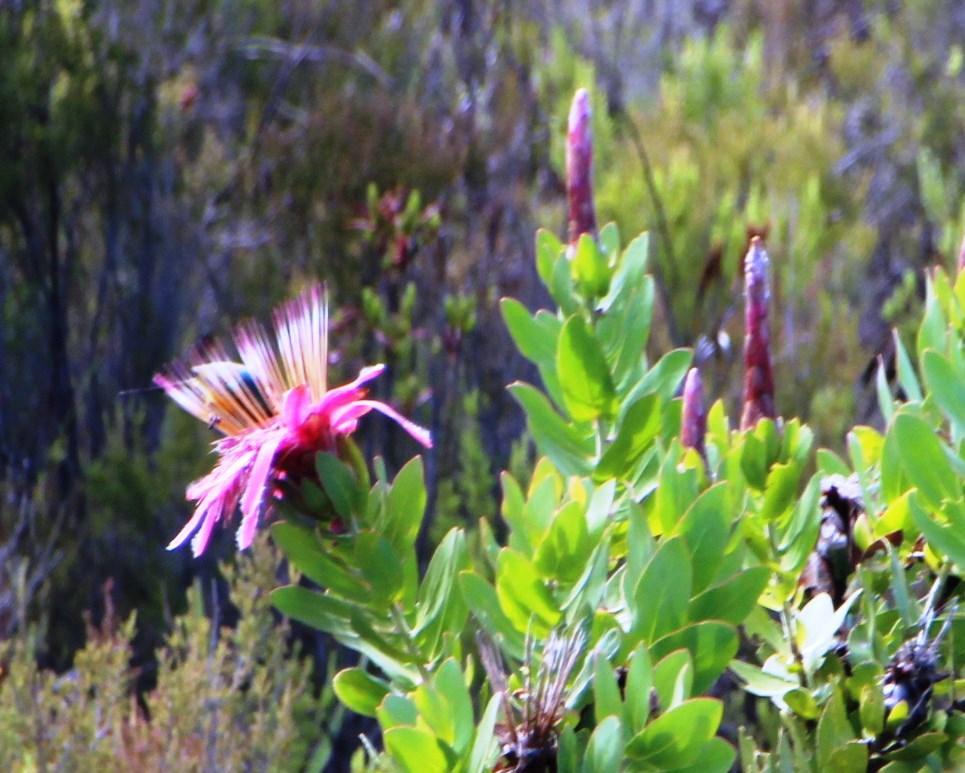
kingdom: Plantae
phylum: Tracheophyta
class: Magnoliopsida
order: Proteales
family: Proteaceae
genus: Protea
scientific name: Protea aurea
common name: Shuttlecock sugarbush
